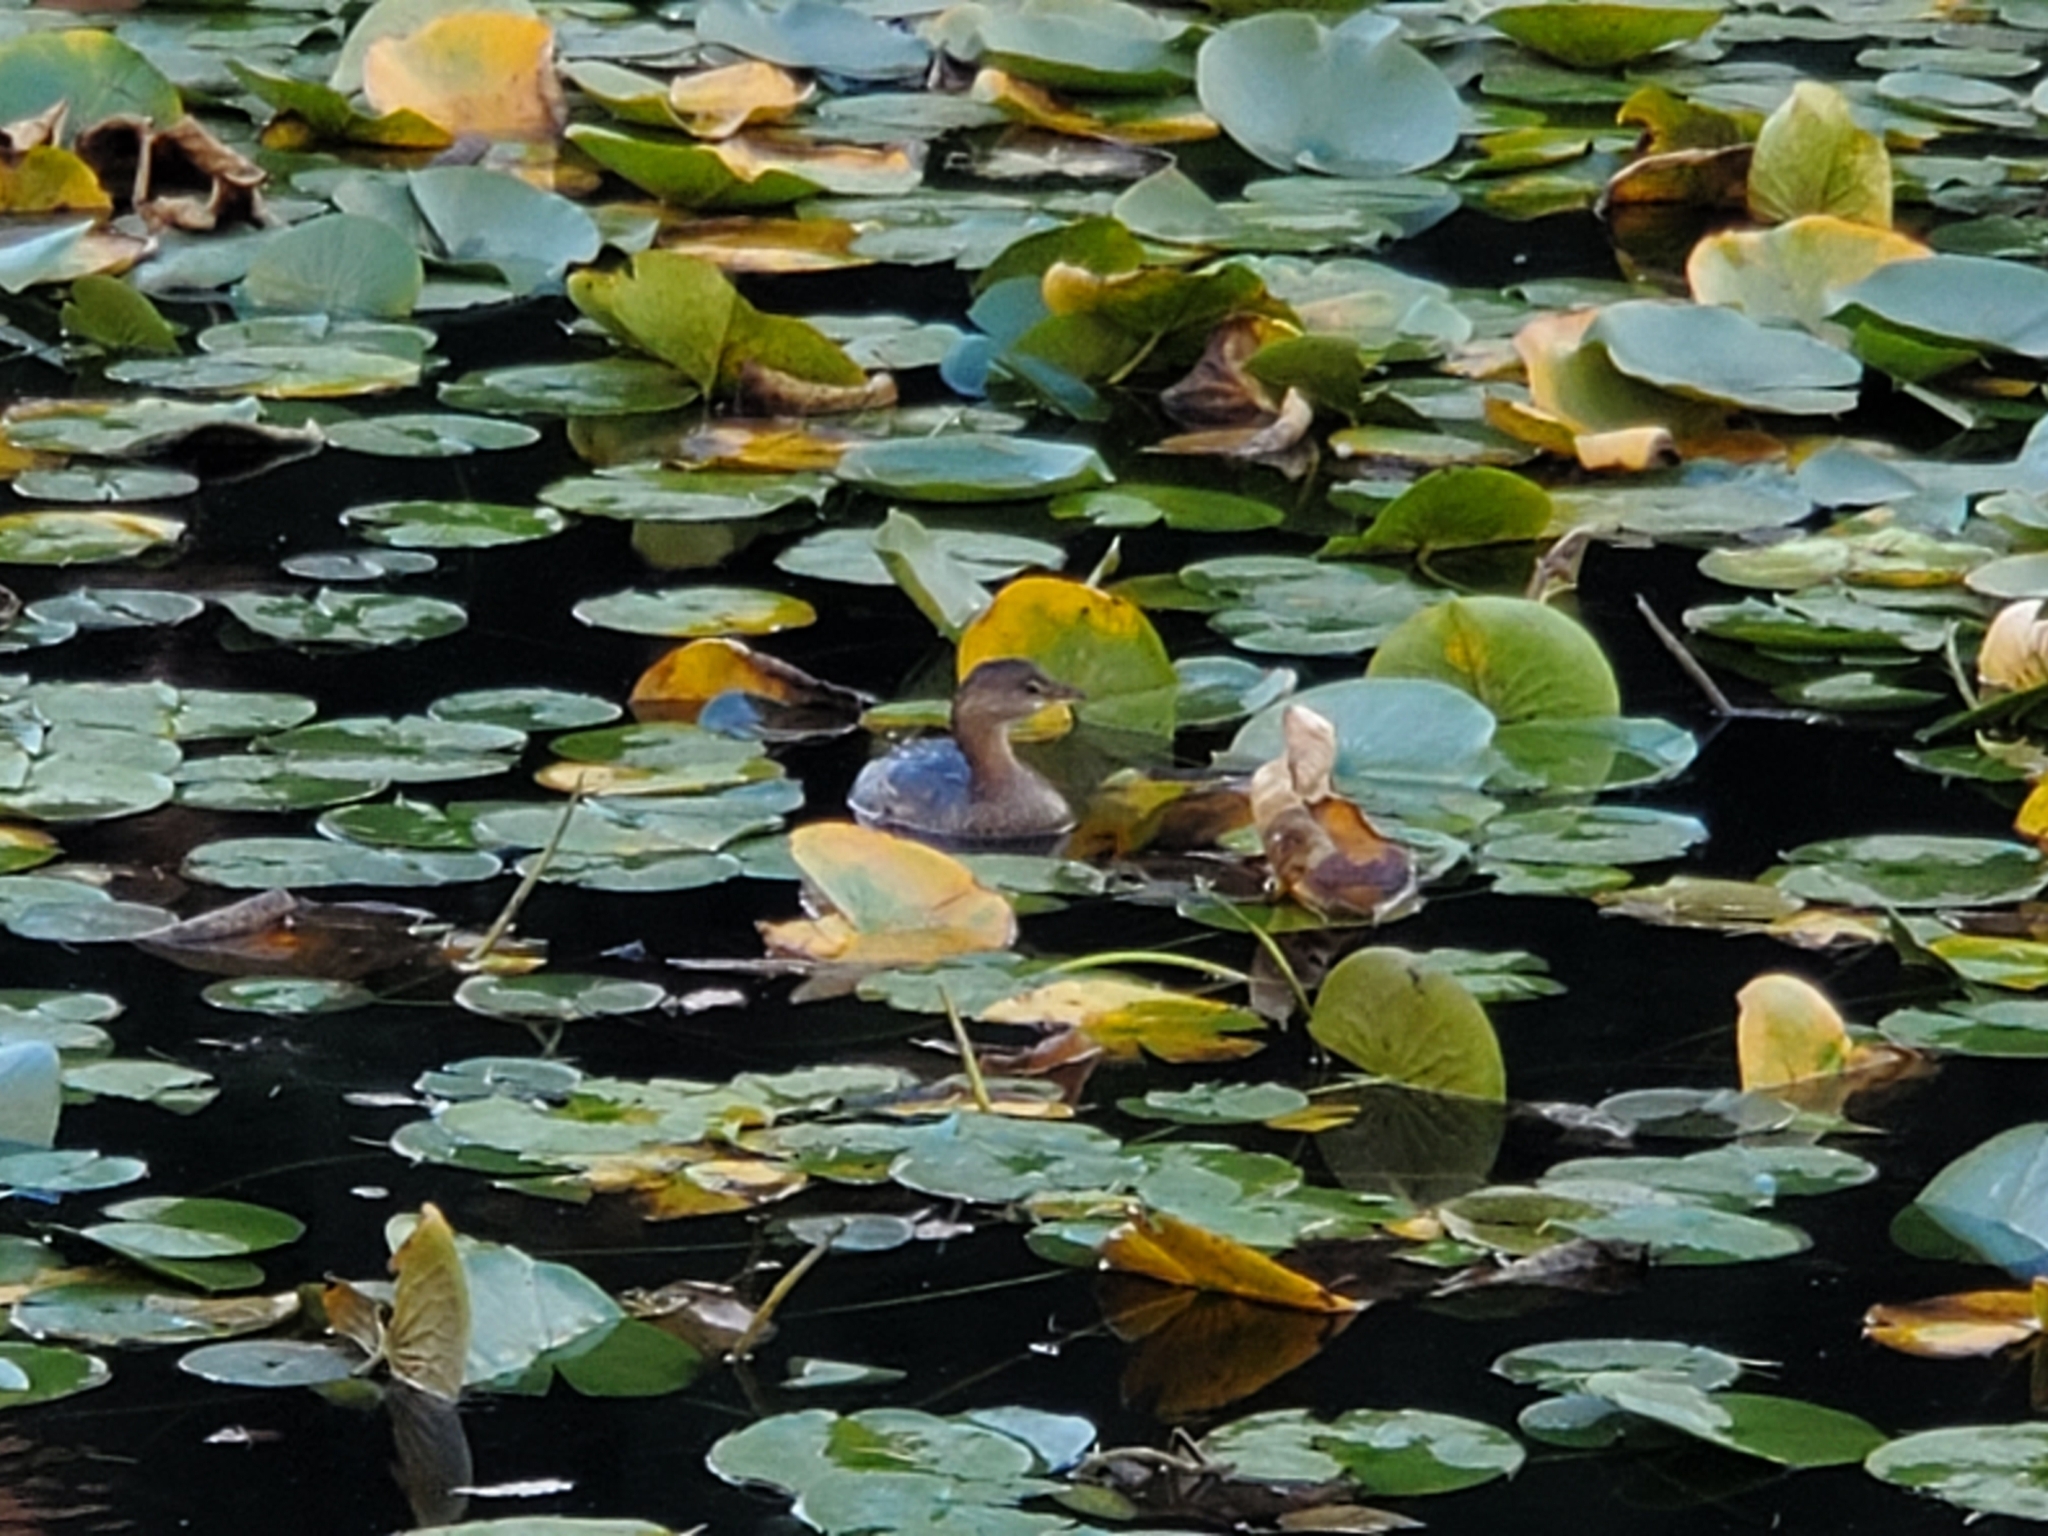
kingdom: Animalia
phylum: Chordata
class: Aves
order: Podicipediformes
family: Podicipedidae
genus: Podilymbus
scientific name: Podilymbus podiceps
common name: Pied-billed grebe
